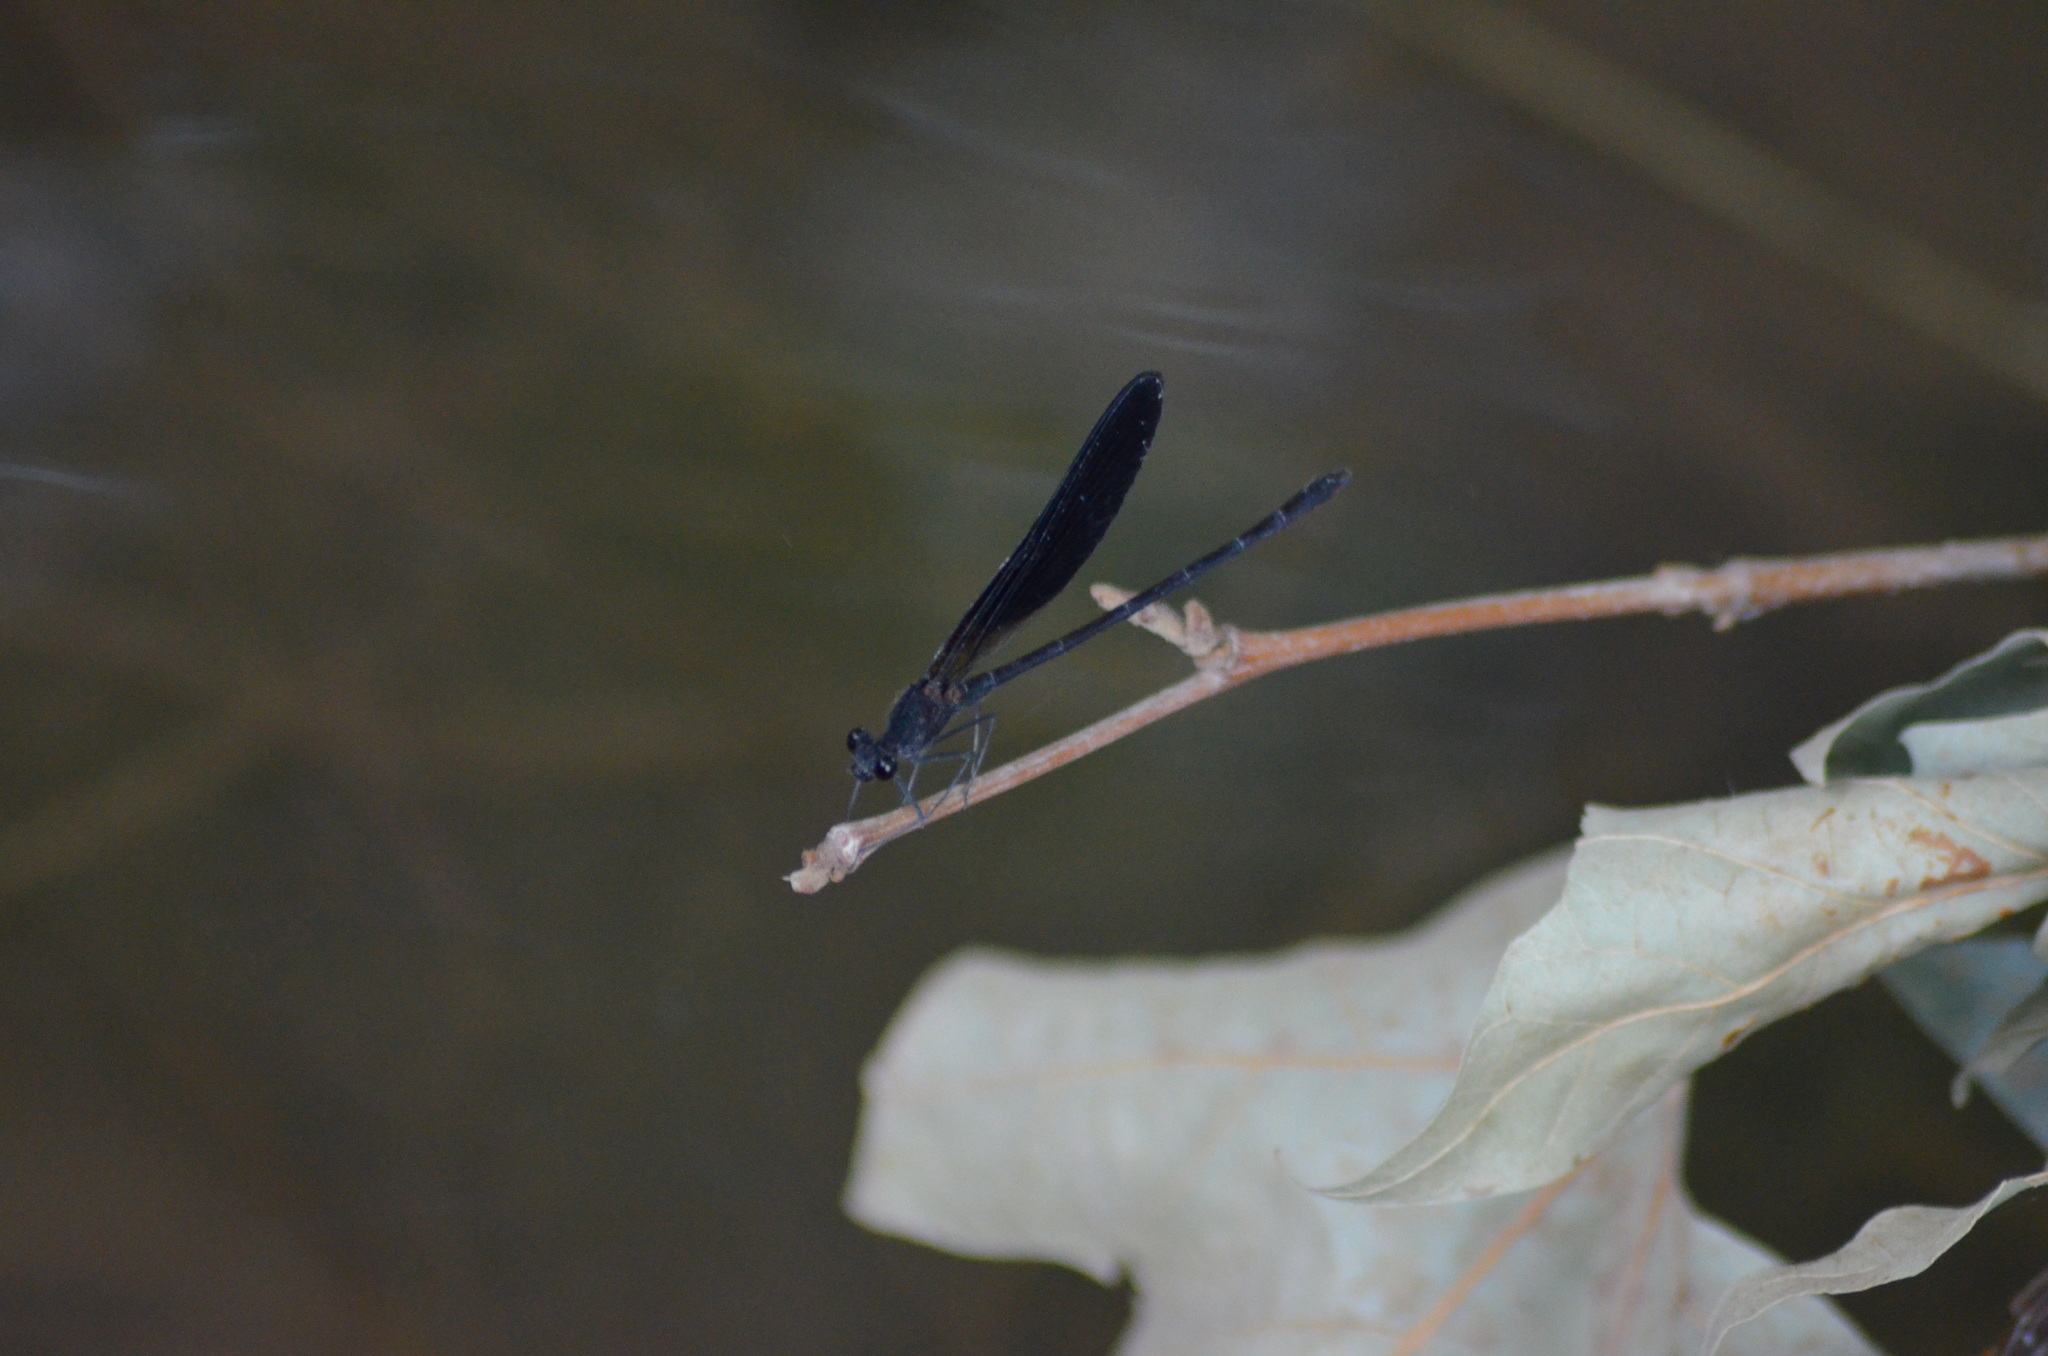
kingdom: Animalia
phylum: Arthropoda
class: Insecta
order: Odonata
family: Calopterygidae
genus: Calopteryx
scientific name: Calopteryx haemorrhoidalis
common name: Copper demoiselle
